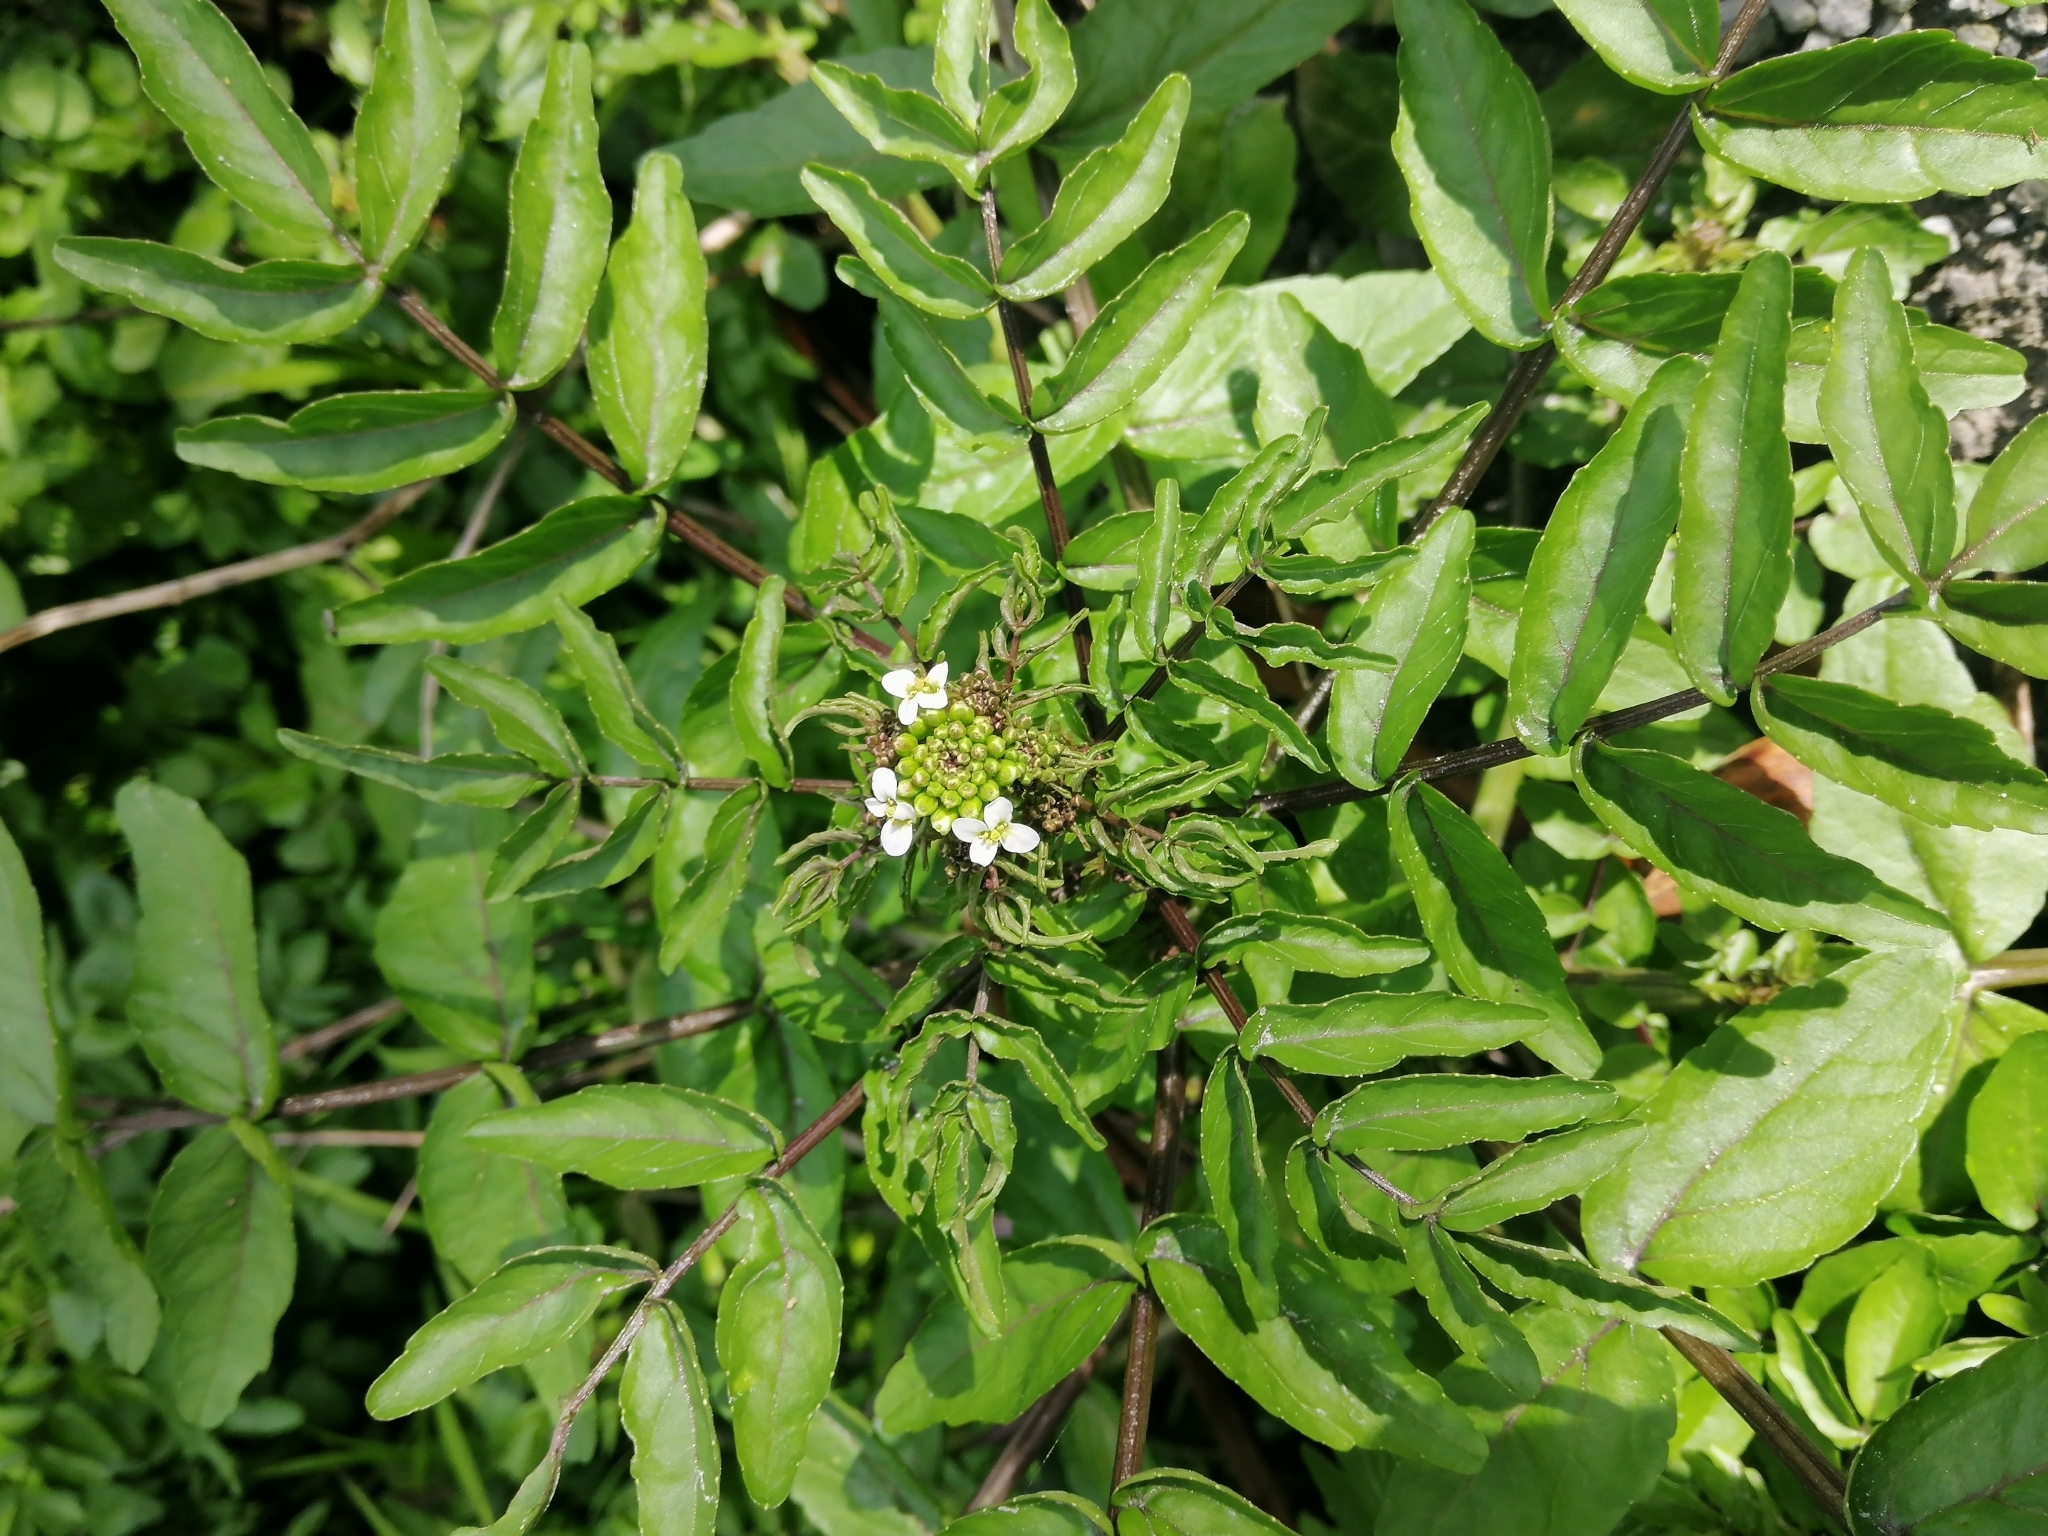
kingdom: Plantae
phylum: Tracheophyta
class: Magnoliopsida
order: Brassicales
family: Brassicaceae
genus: Nasturtium
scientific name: Nasturtium officinale
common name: Watercress
